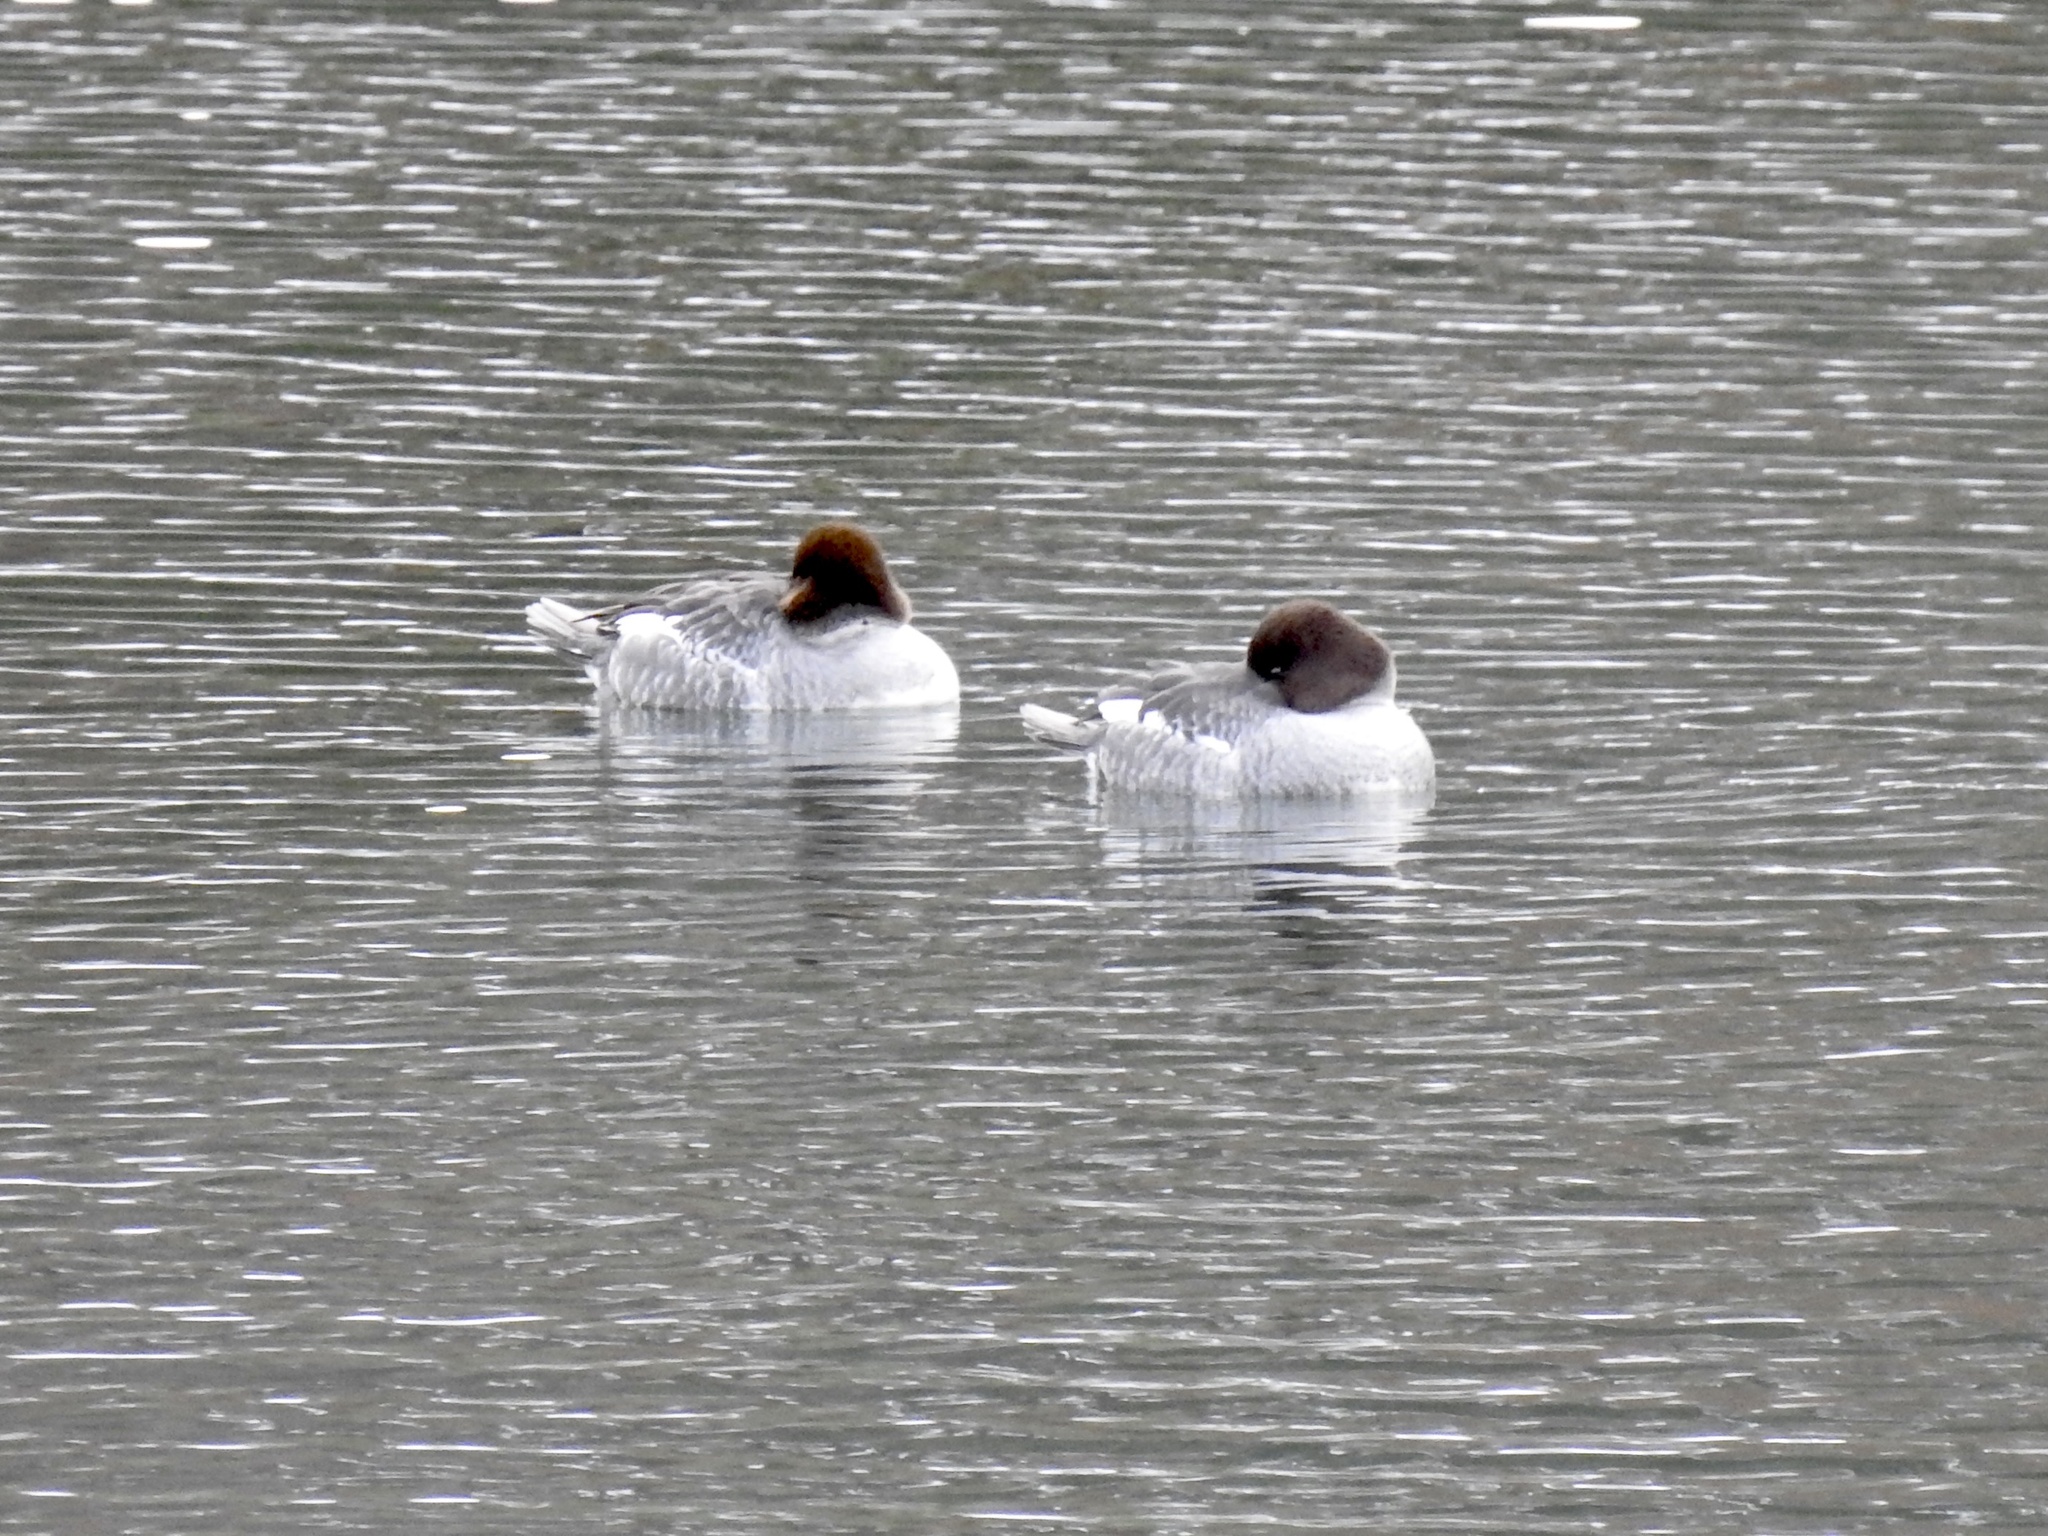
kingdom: Animalia
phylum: Chordata
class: Aves
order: Anseriformes
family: Anatidae
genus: Bucephala
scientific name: Bucephala clangula
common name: Common goldeneye
